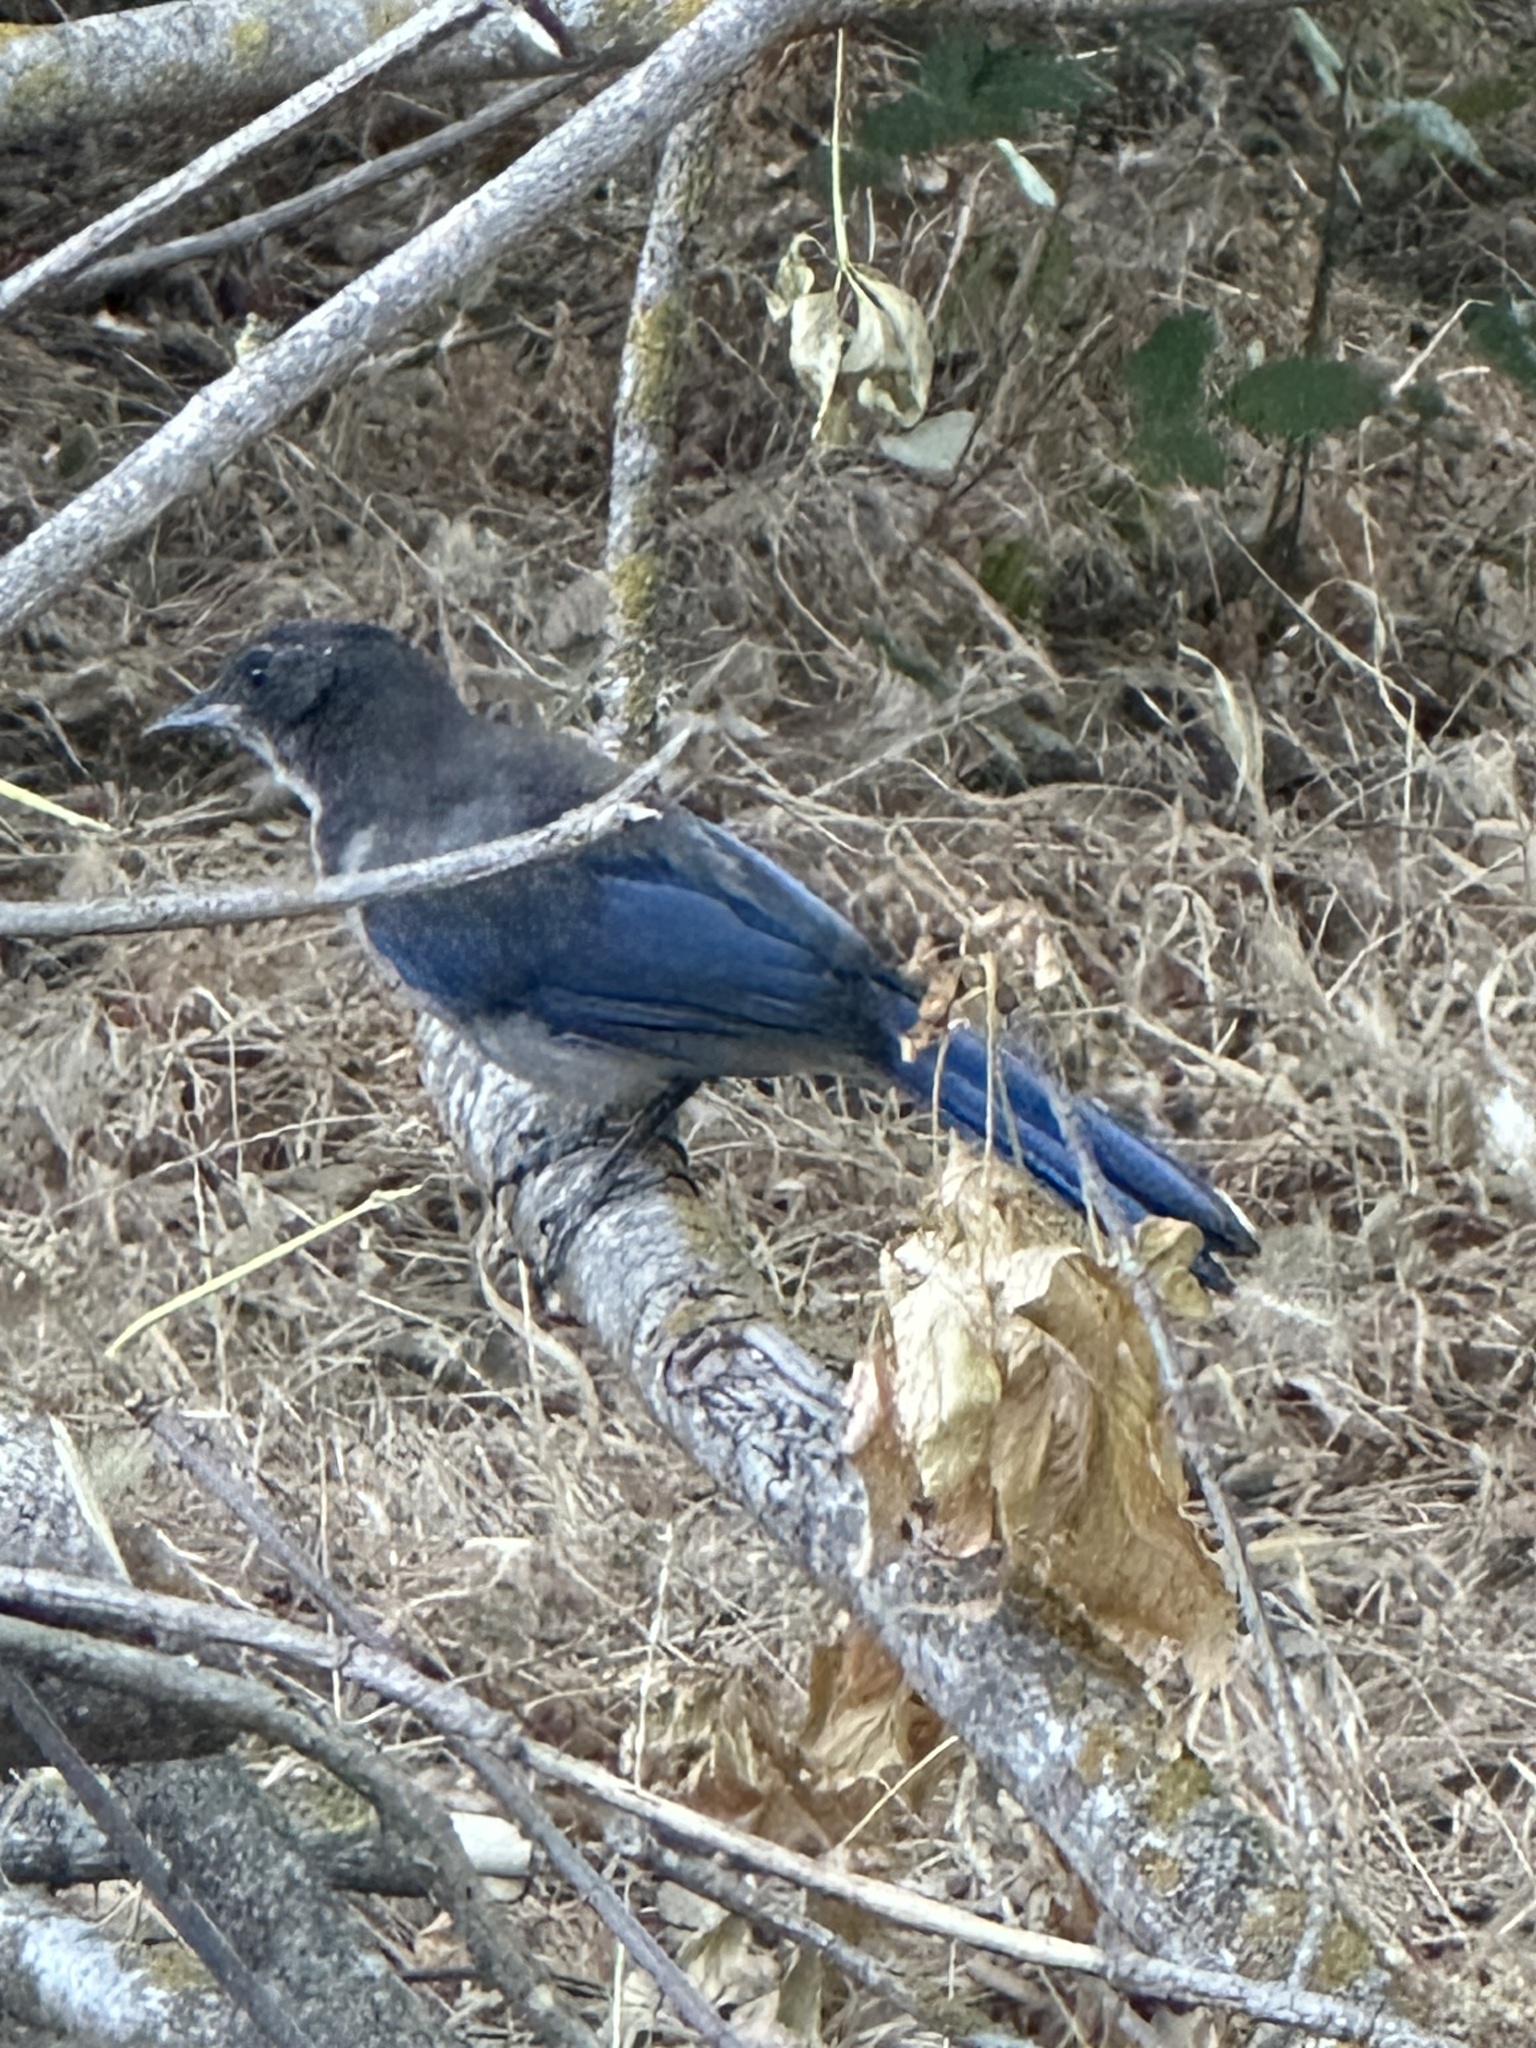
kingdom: Animalia
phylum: Chordata
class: Aves
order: Passeriformes
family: Corvidae
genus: Aphelocoma
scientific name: Aphelocoma californica
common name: California scrub-jay
